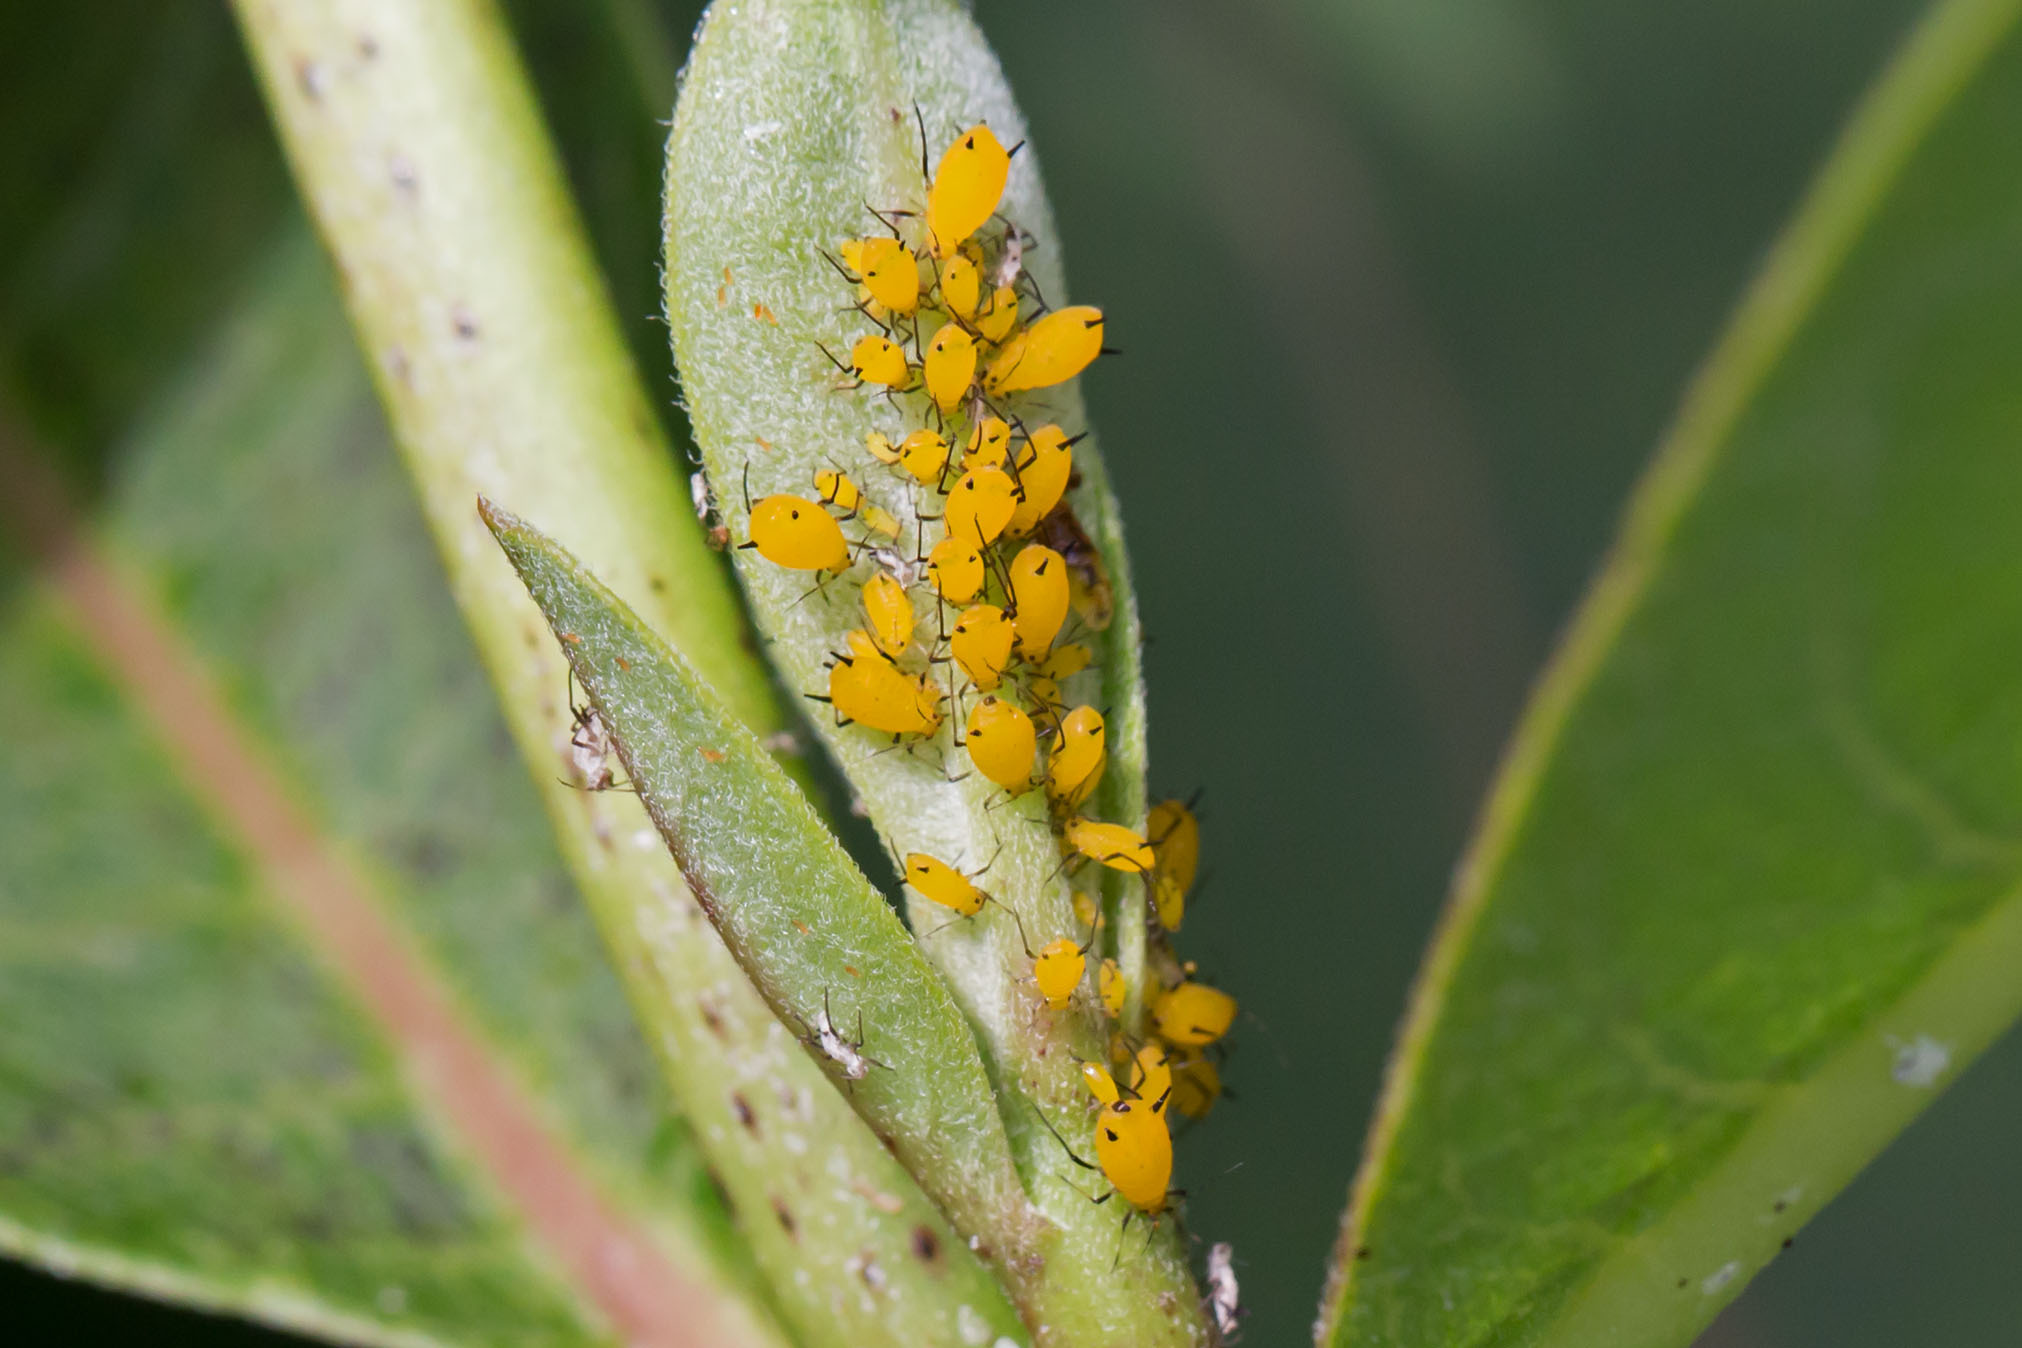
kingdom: Animalia
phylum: Arthropoda
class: Insecta
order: Hemiptera
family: Aphididae
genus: Aphis
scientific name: Aphis nerii
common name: Oleander aphid
